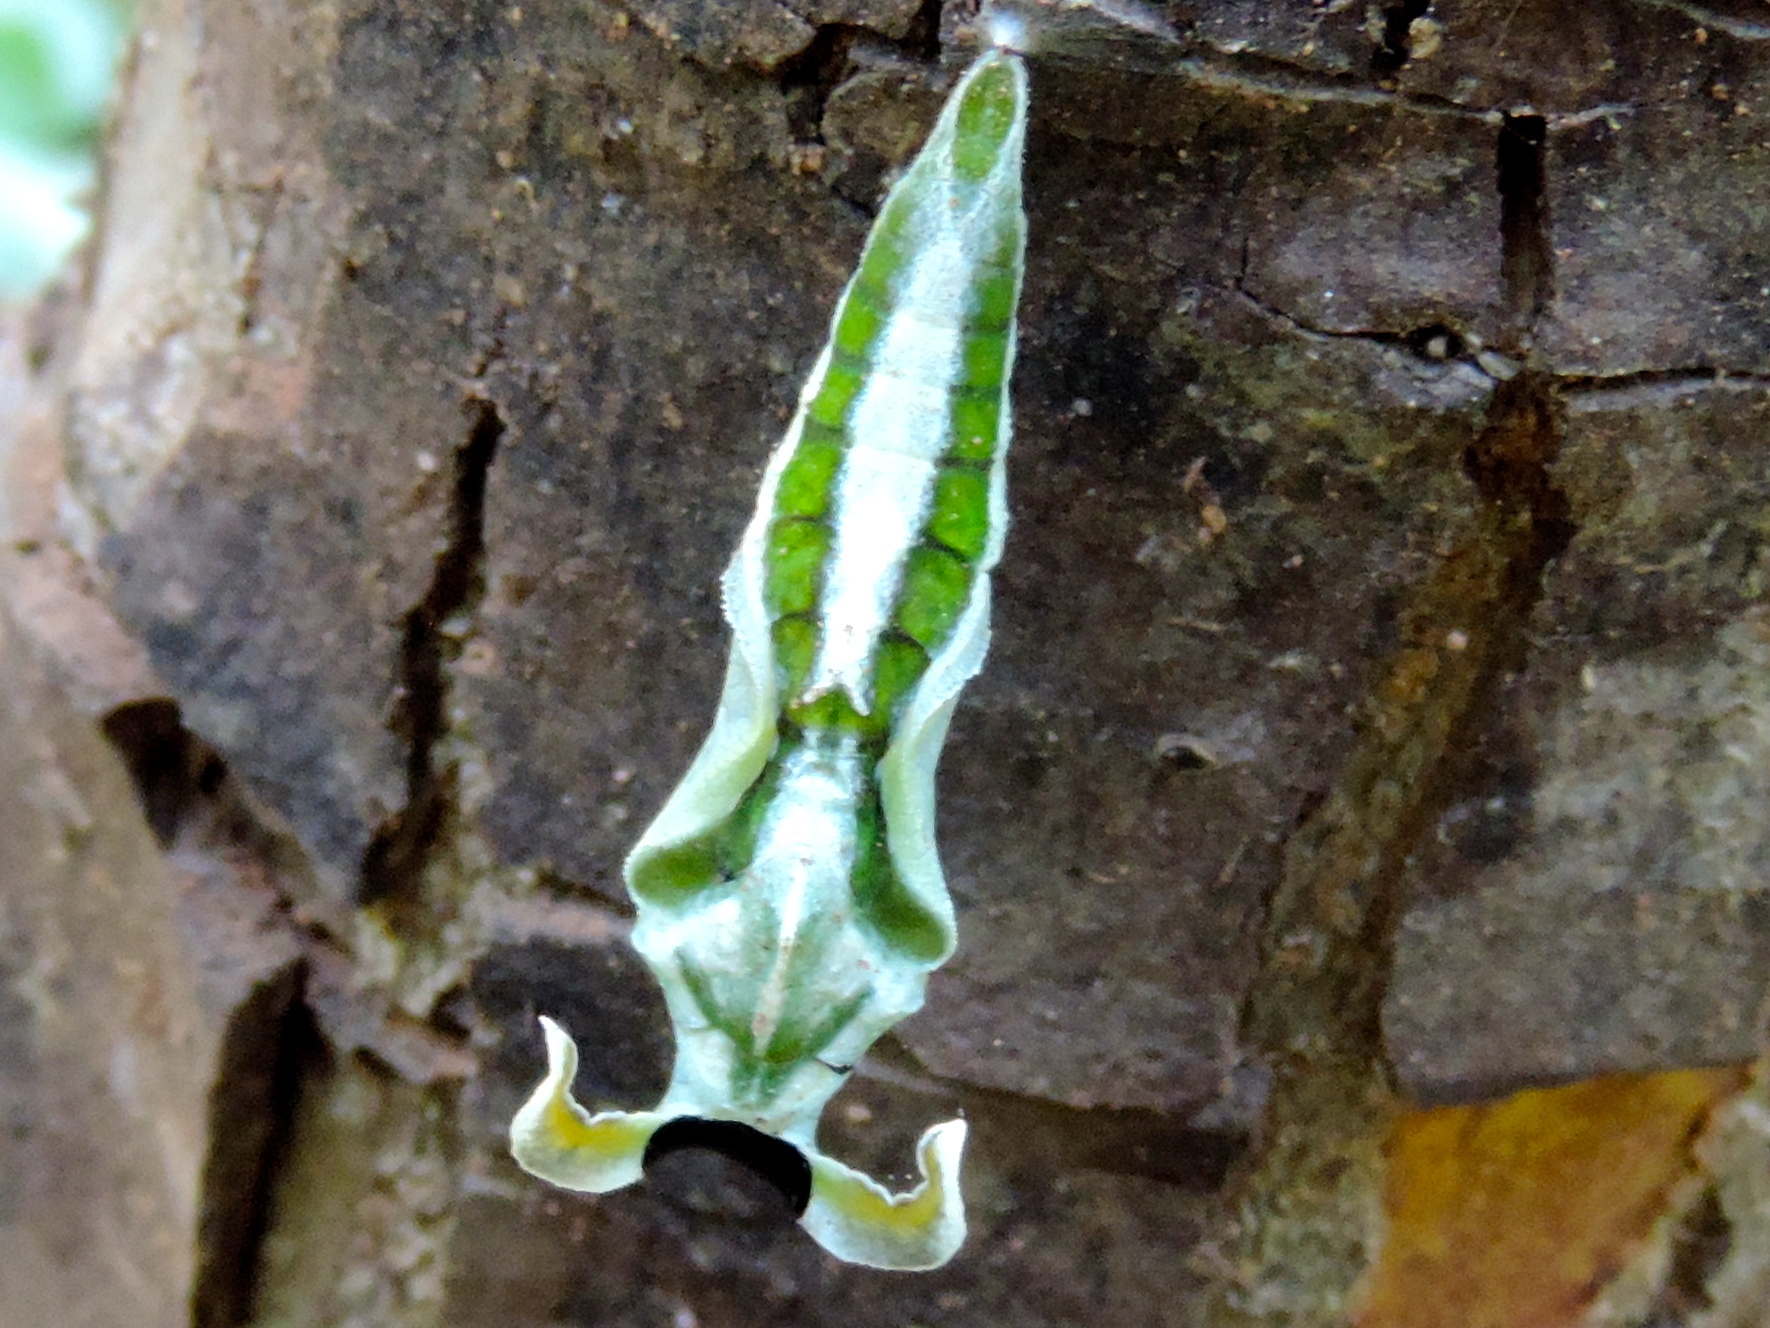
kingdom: Animalia
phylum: Arthropoda
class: Insecta
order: Lepidoptera
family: Nymphalidae
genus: Hamadryas
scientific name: Hamadryas
